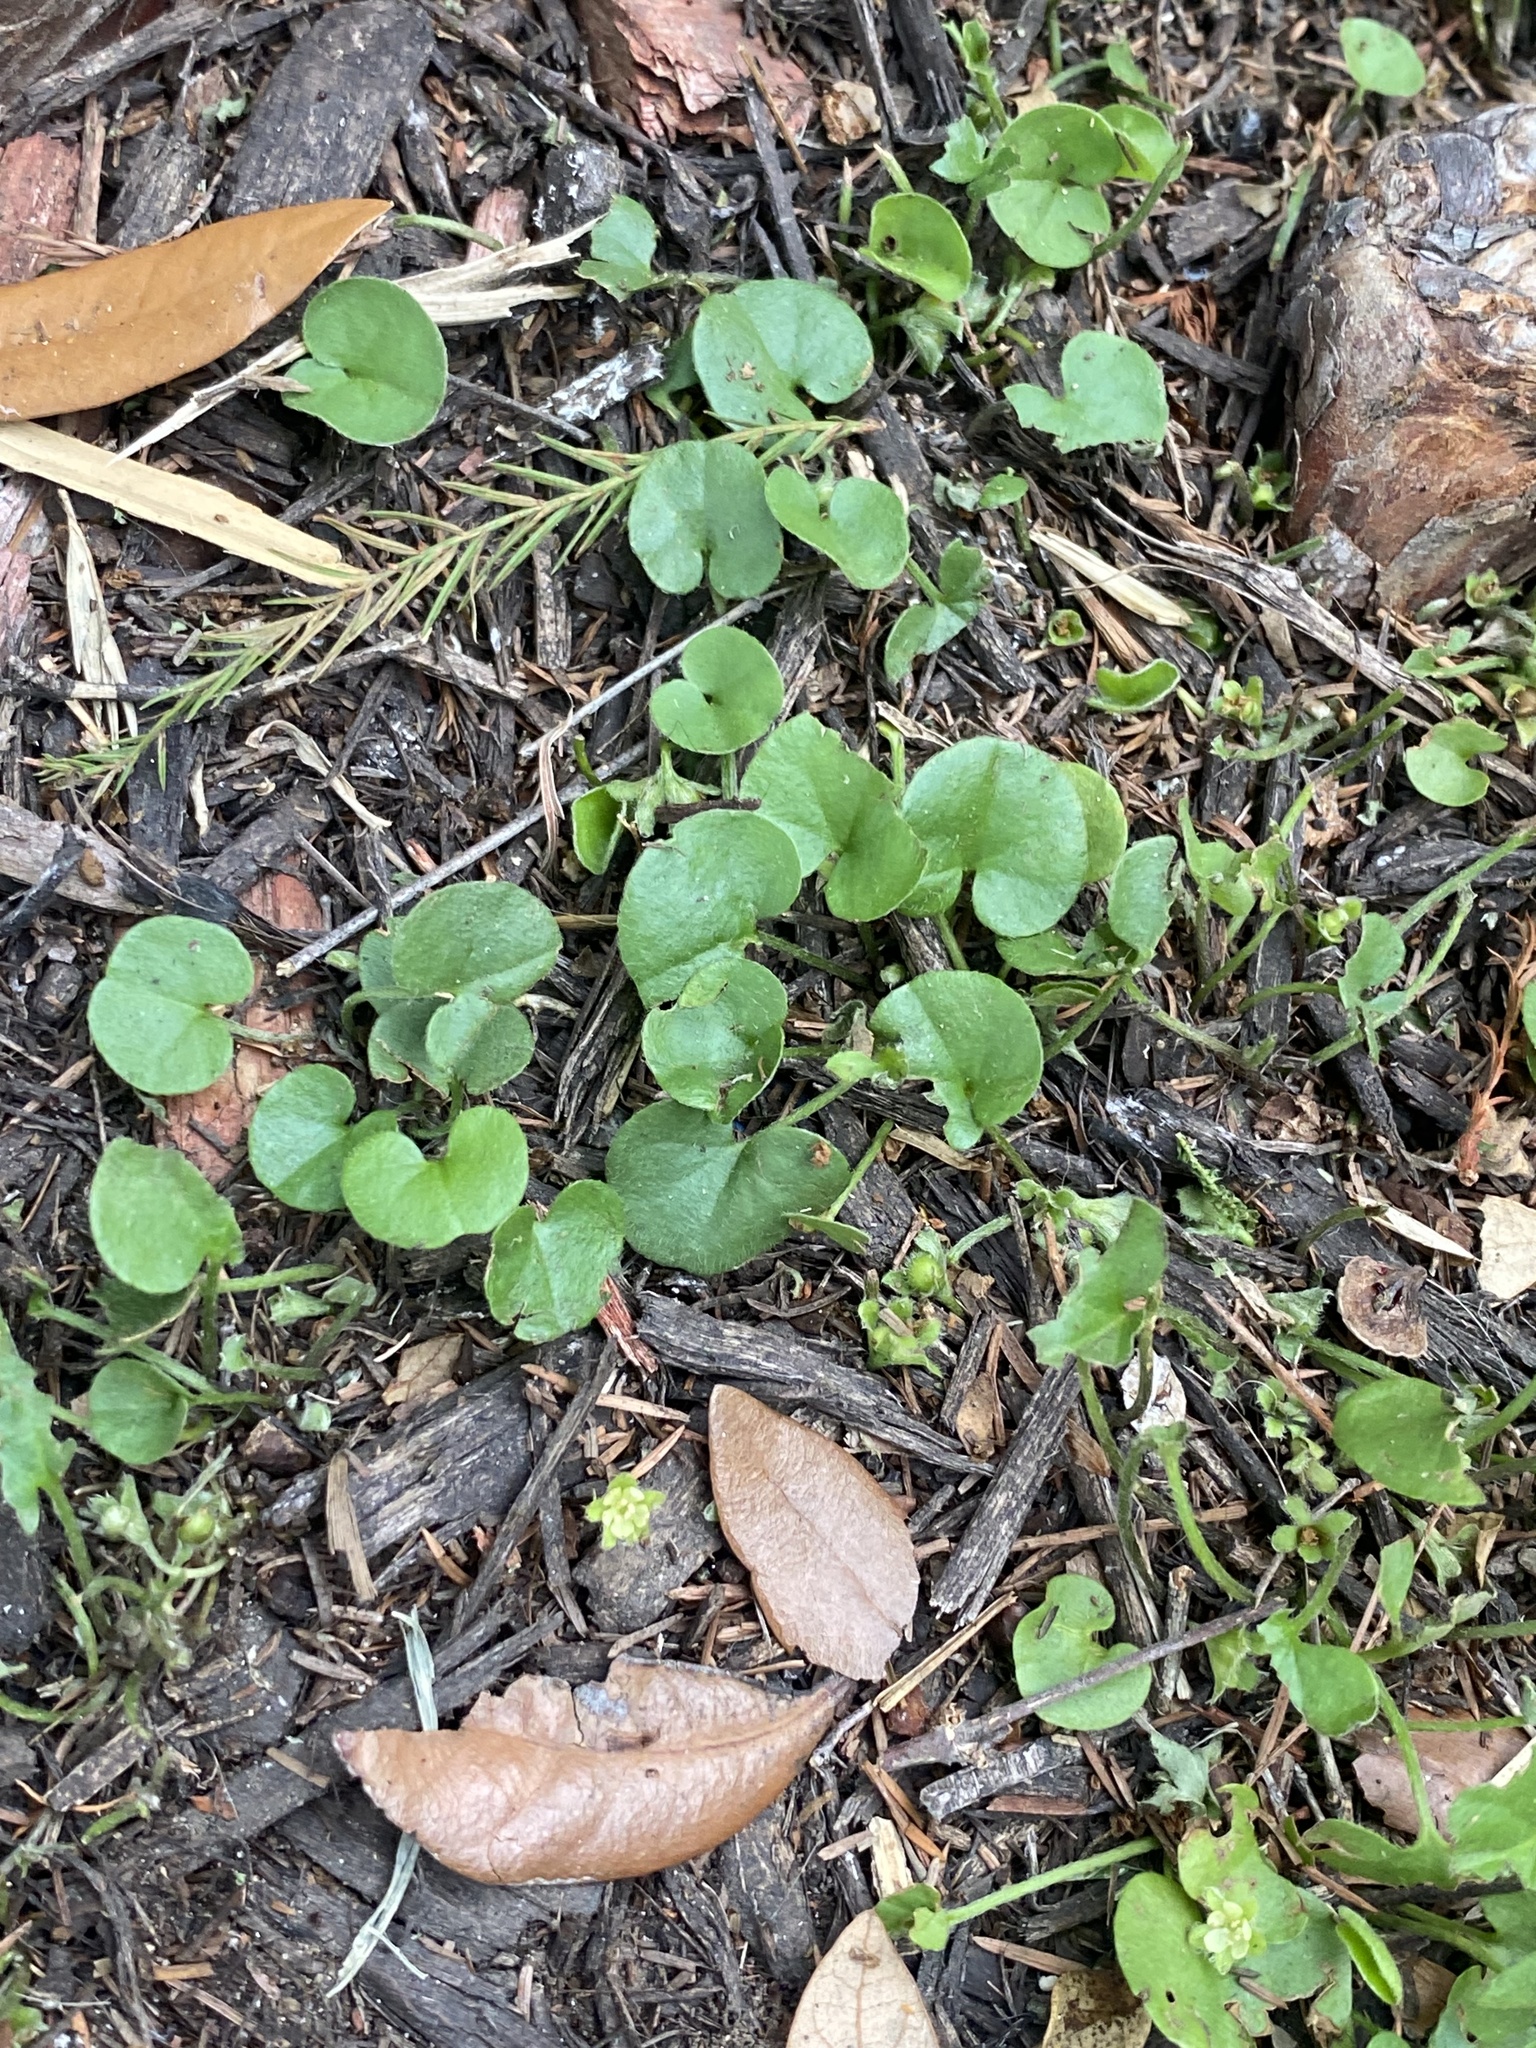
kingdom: Plantae
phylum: Tracheophyta
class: Magnoliopsida
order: Solanales
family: Convolvulaceae
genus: Dichondra
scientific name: Dichondra carolinensis
